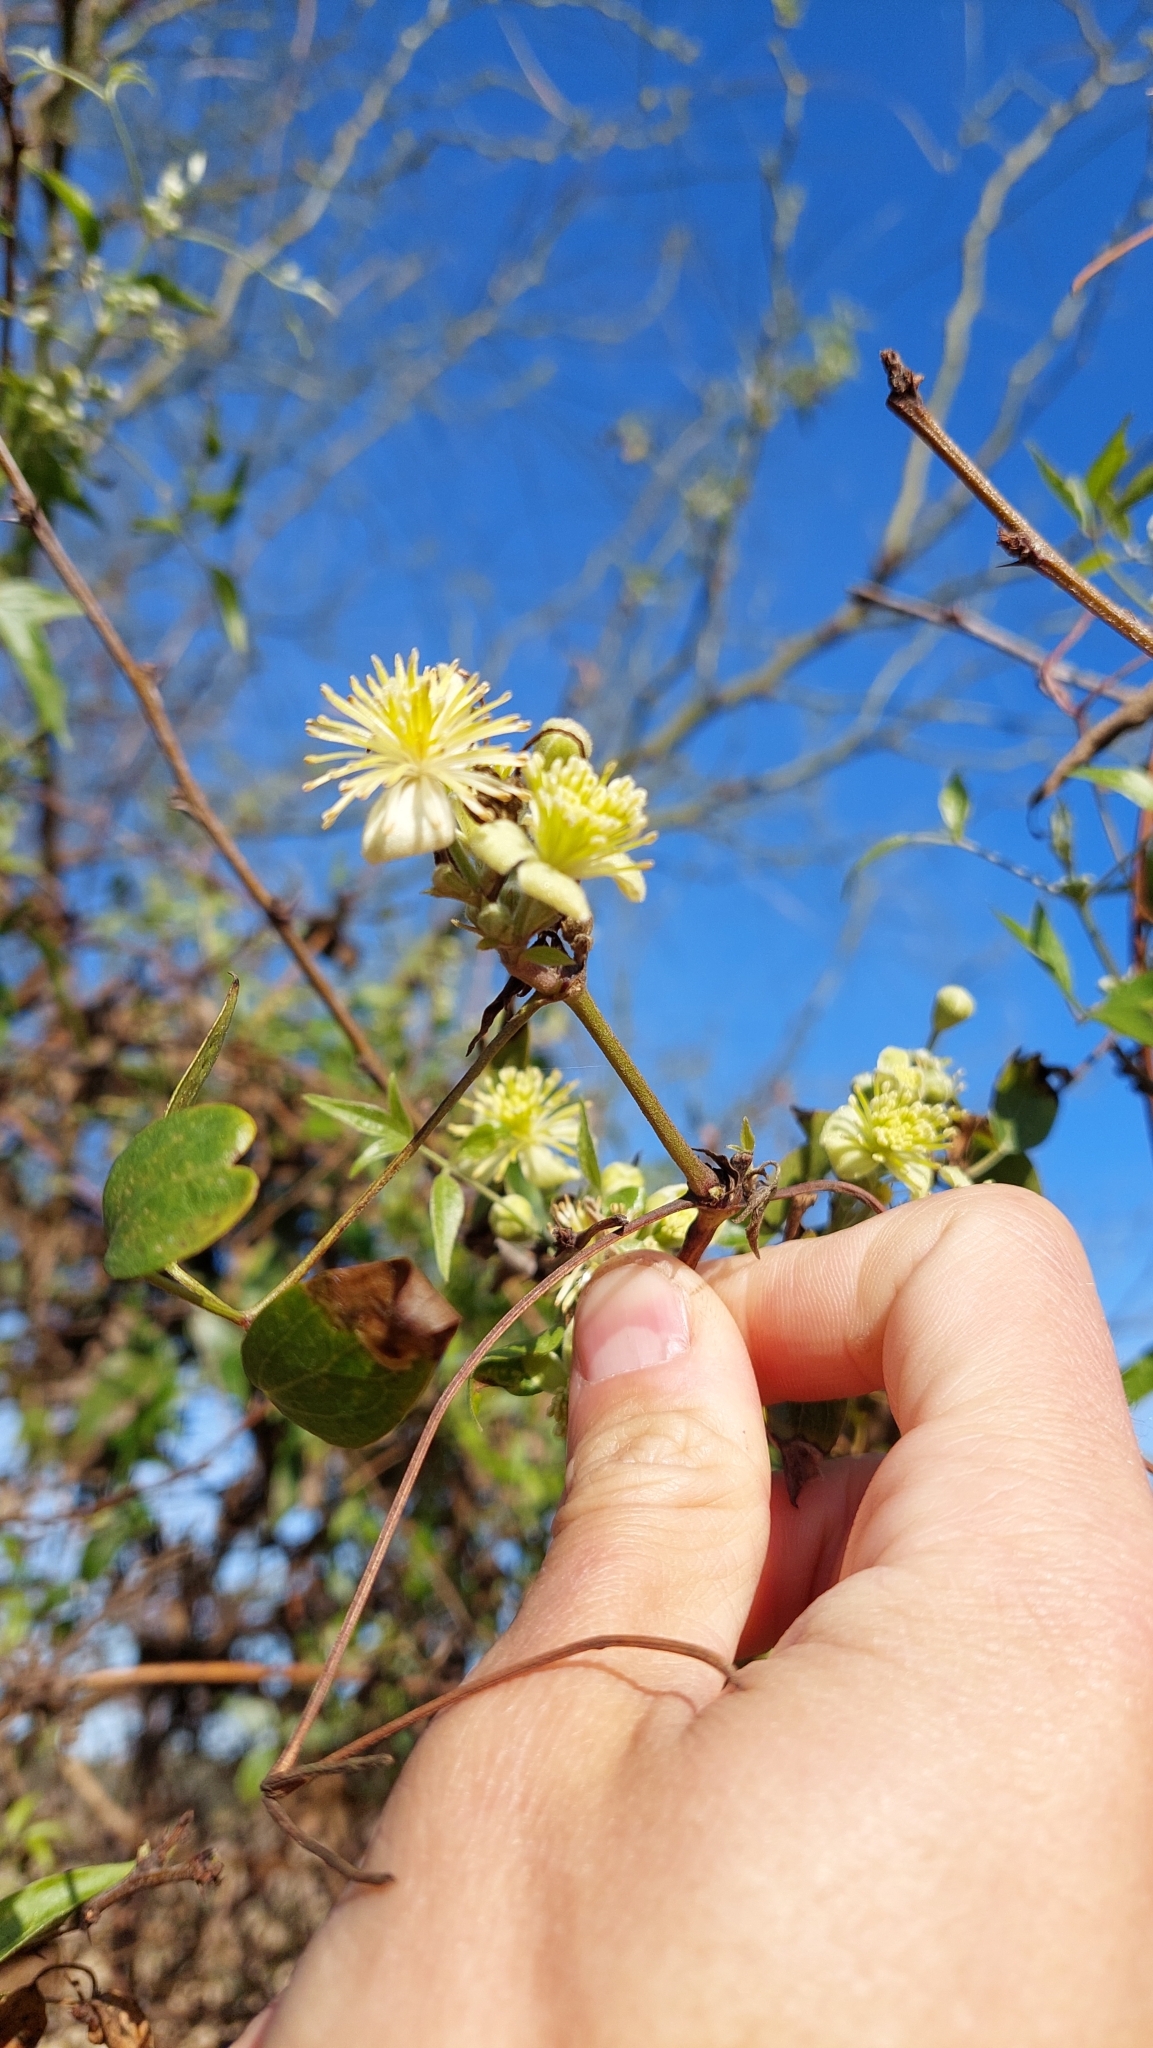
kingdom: Plantae
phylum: Tracheophyta
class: Magnoliopsida
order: Ranunculales
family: Ranunculaceae
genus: Clematis
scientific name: Clematis montevidensis
